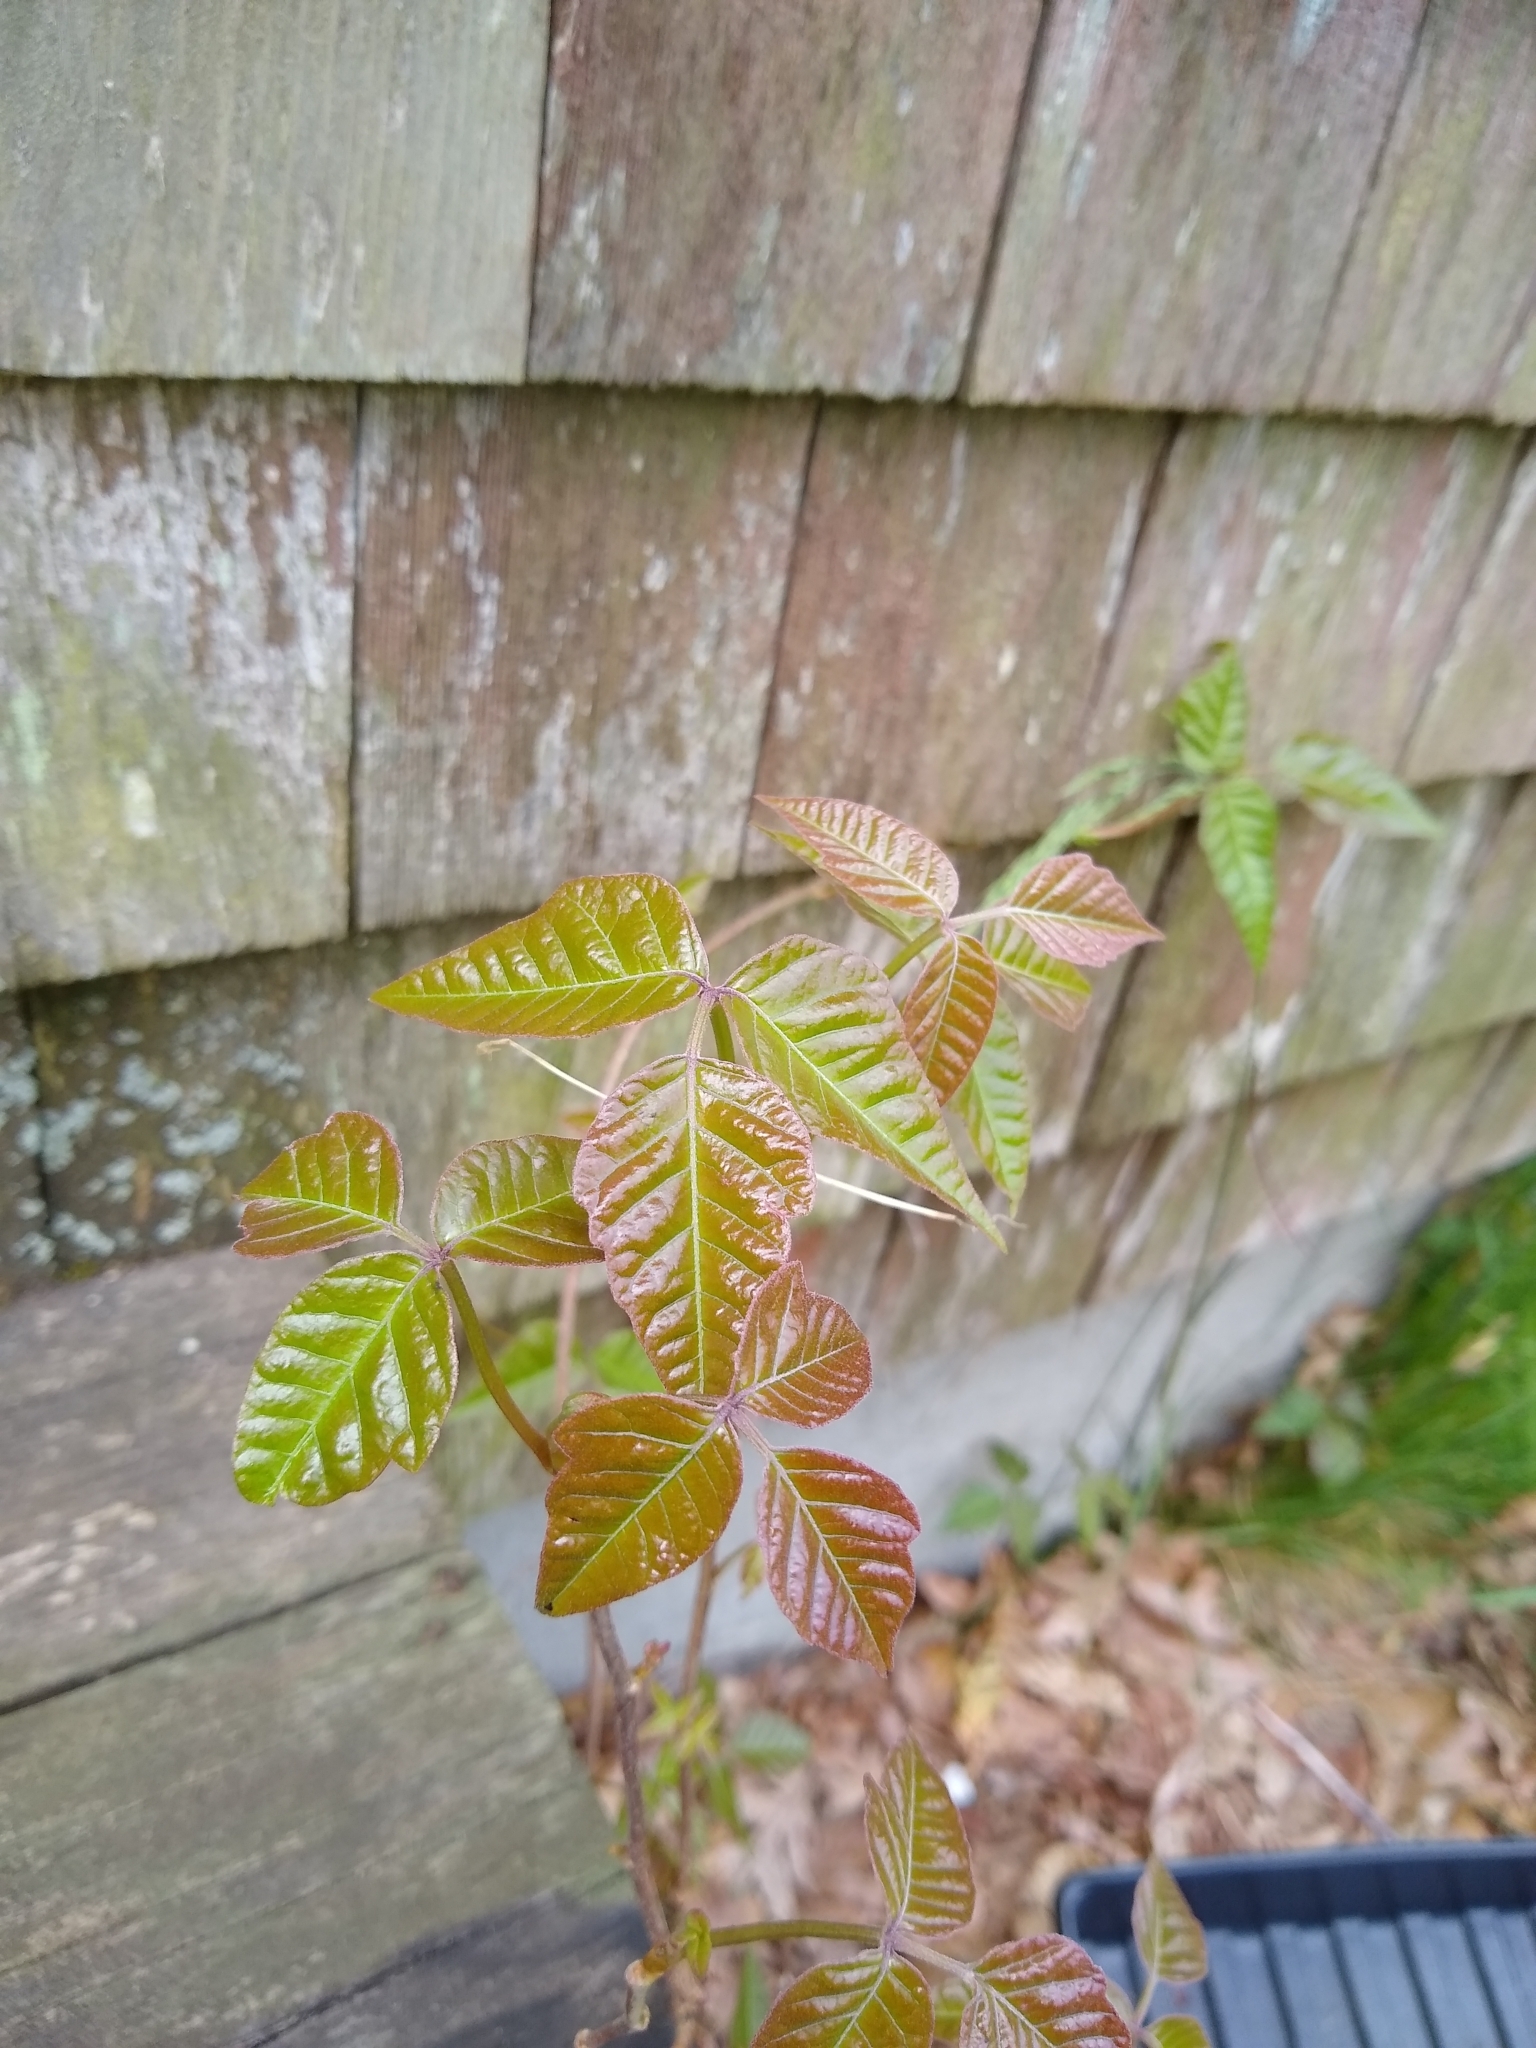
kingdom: Plantae
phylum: Tracheophyta
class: Magnoliopsida
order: Sapindales
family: Anacardiaceae
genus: Toxicodendron
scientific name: Toxicodendron radicans
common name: Poison ivy
